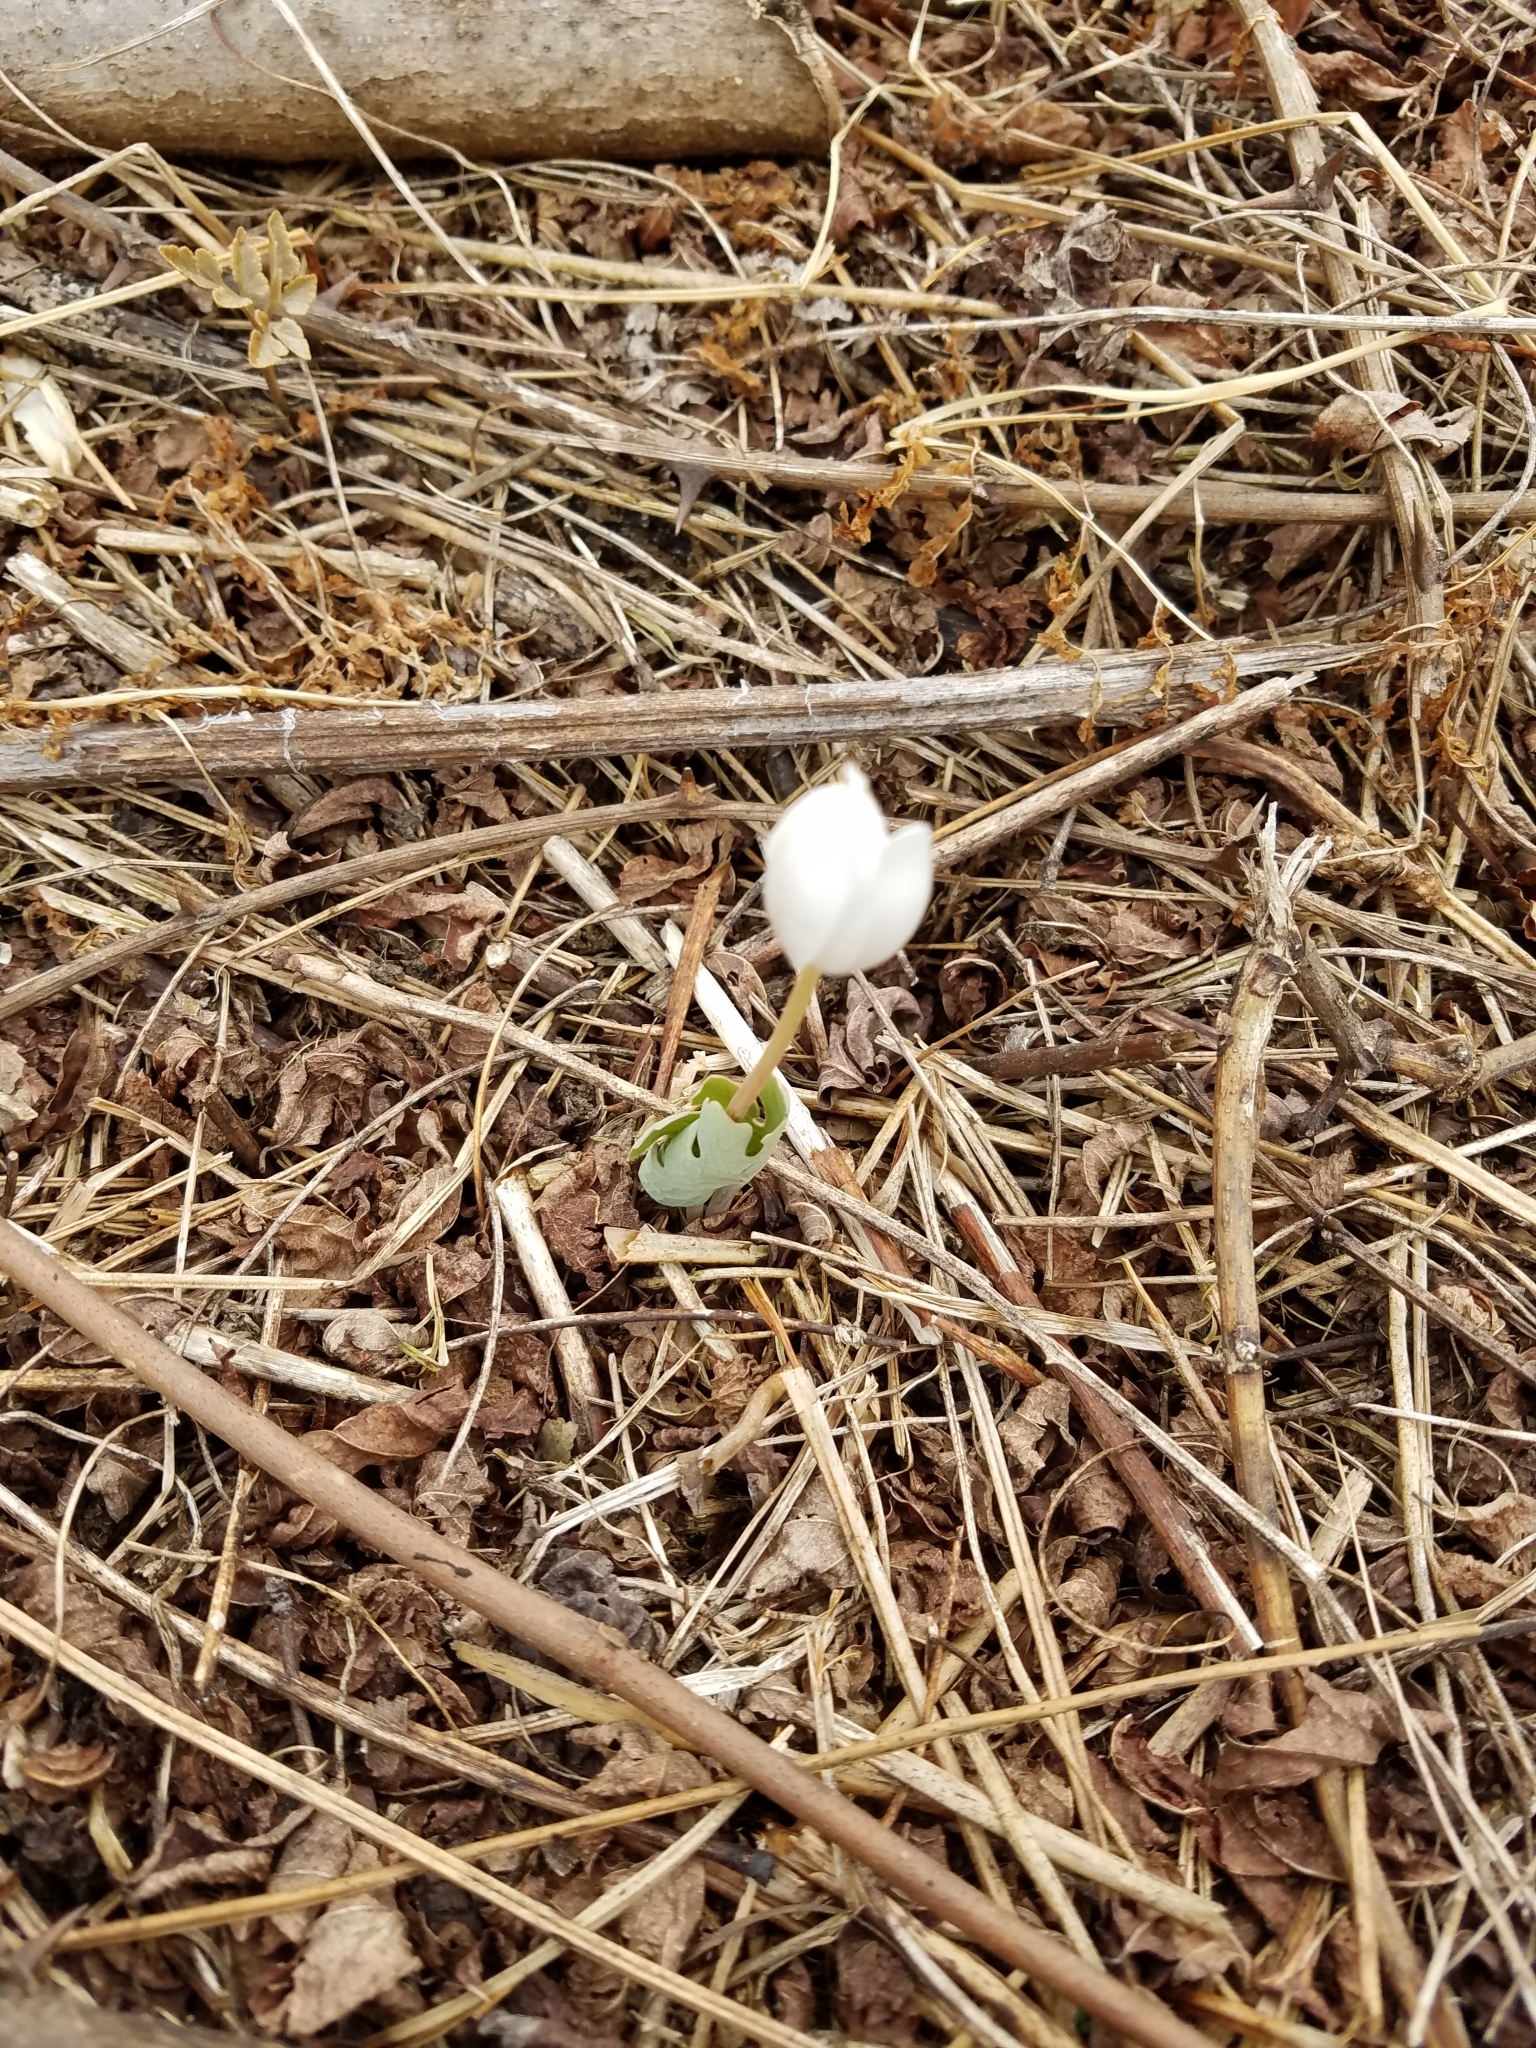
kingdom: Plantae
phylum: Tracheophyta
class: Magnoliopsida
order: Ranunculales
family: Papaveraceae
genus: Sanguinaria
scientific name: Sanguinaria canadensis
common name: Bloodroot
